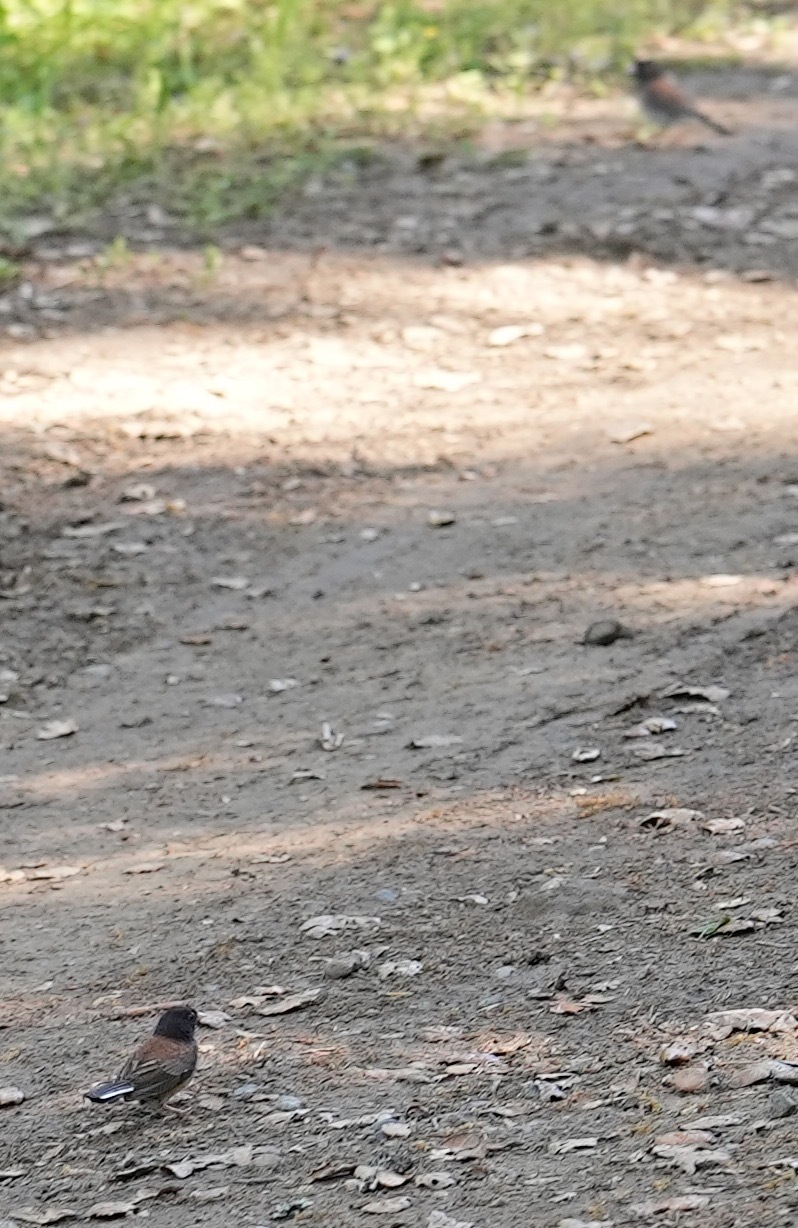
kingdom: Animalia
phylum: Chordata
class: Aves
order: Passeriformes
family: Passerellidae
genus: Junco
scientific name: Junco hyemalis
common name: Dark-eyed junco
